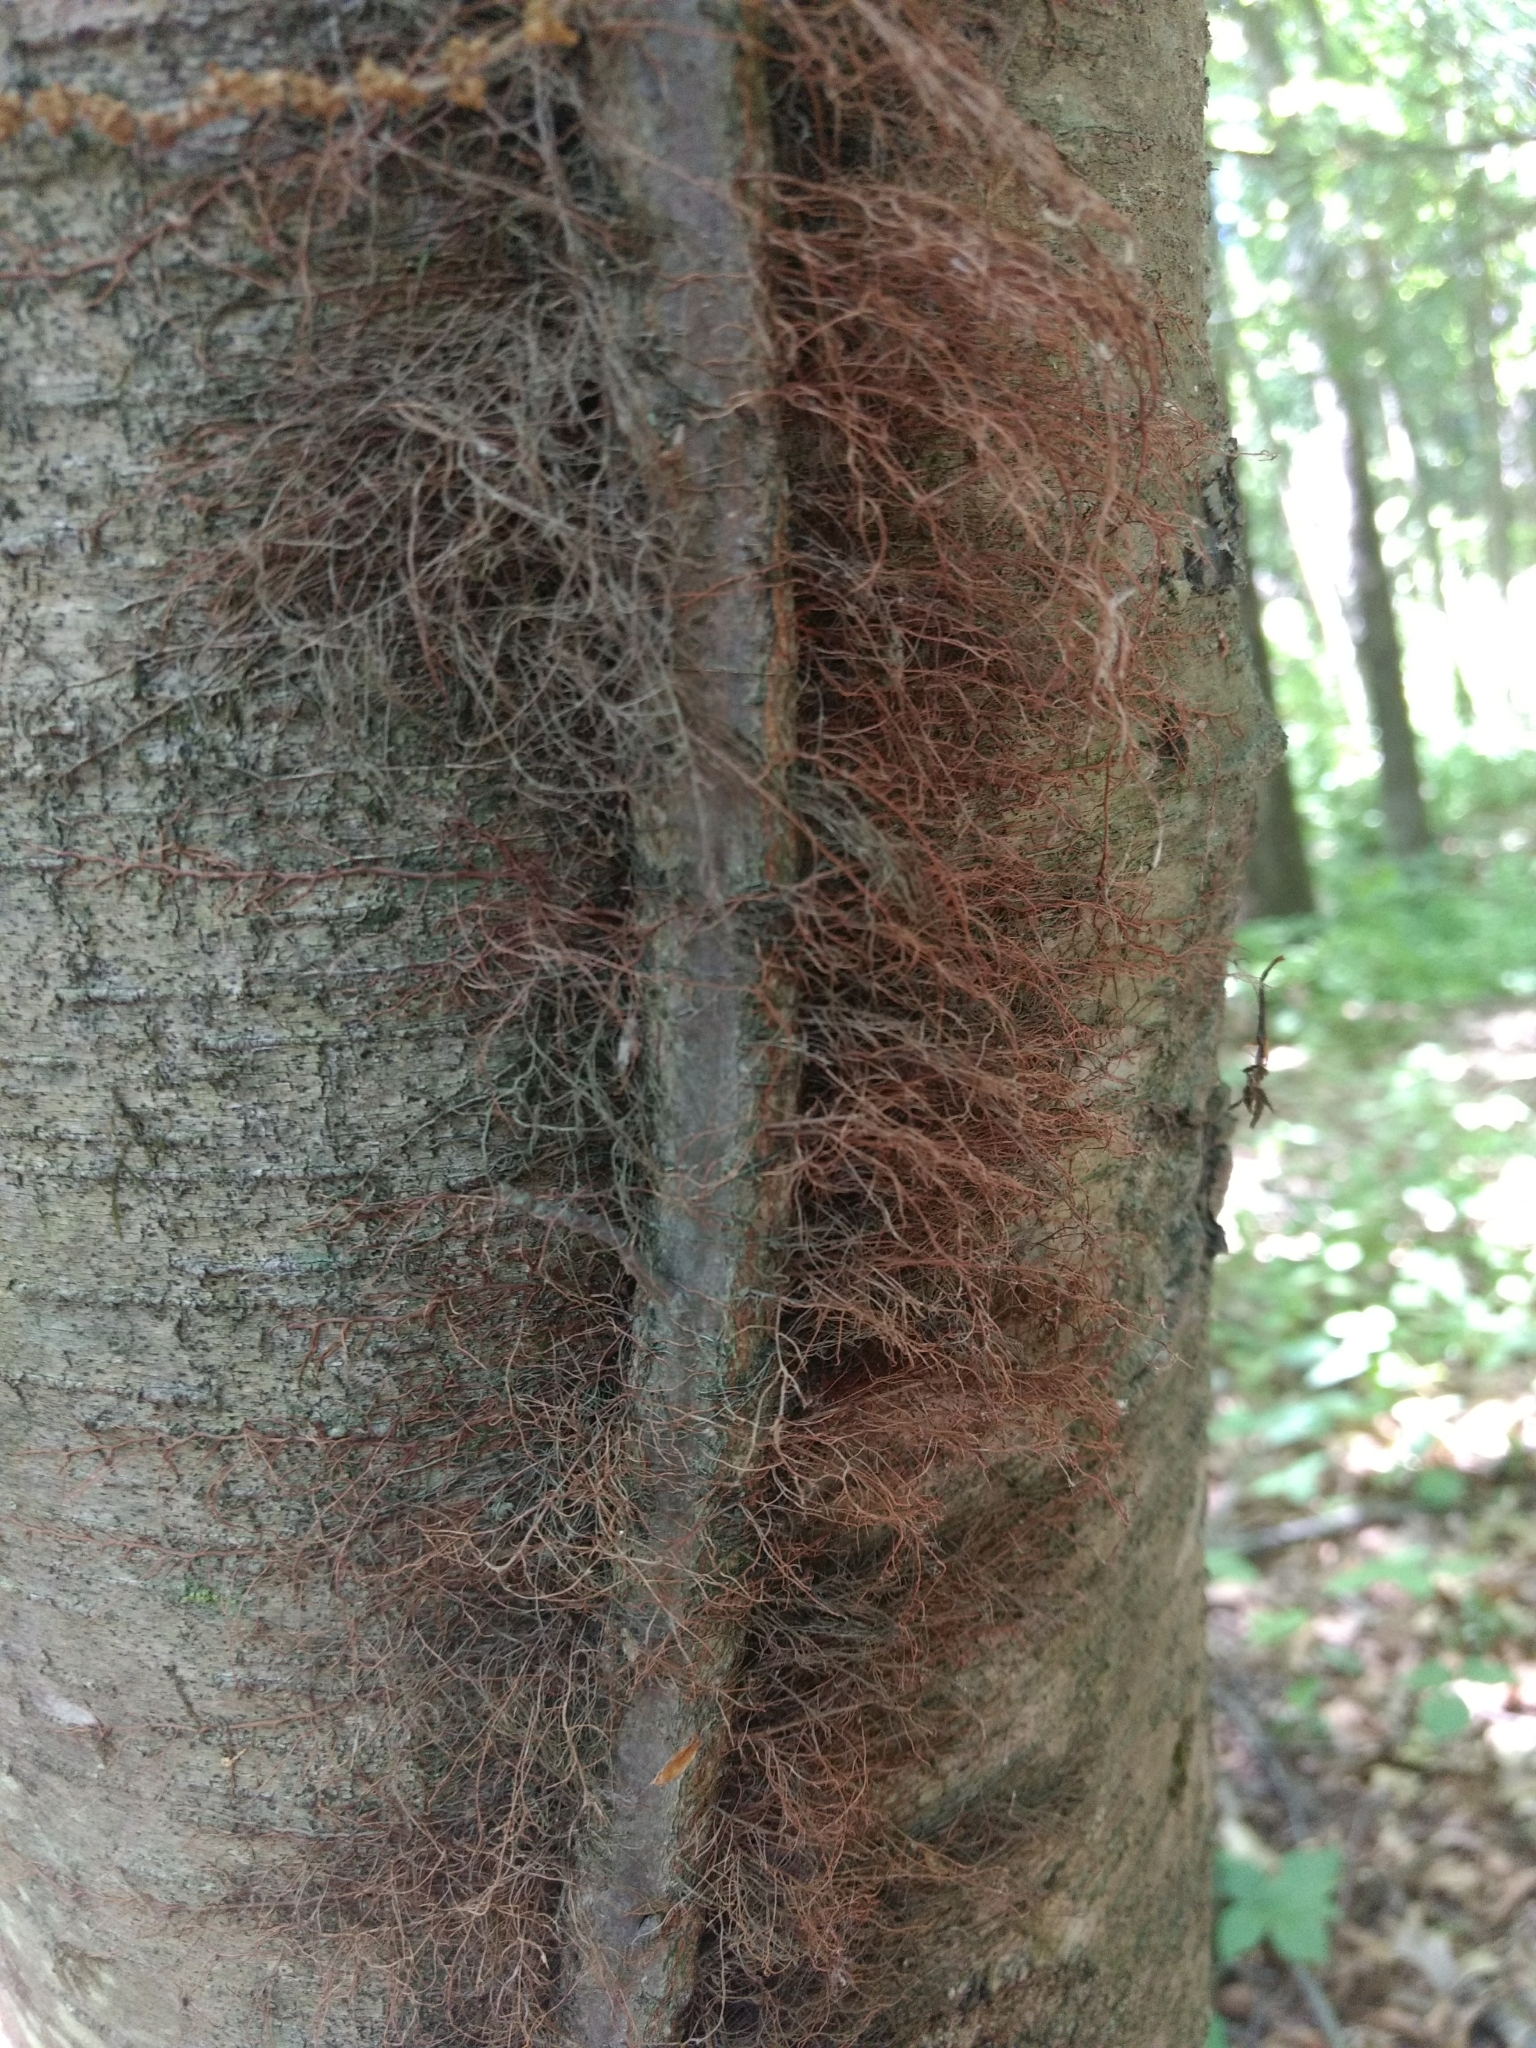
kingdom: Plantae
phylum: Tracheophyta
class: Magnoliopsida
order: Sapindales
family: Anacardiaceae
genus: Toxicodendron
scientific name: Toxicodendron radicans
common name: Poison ivy
